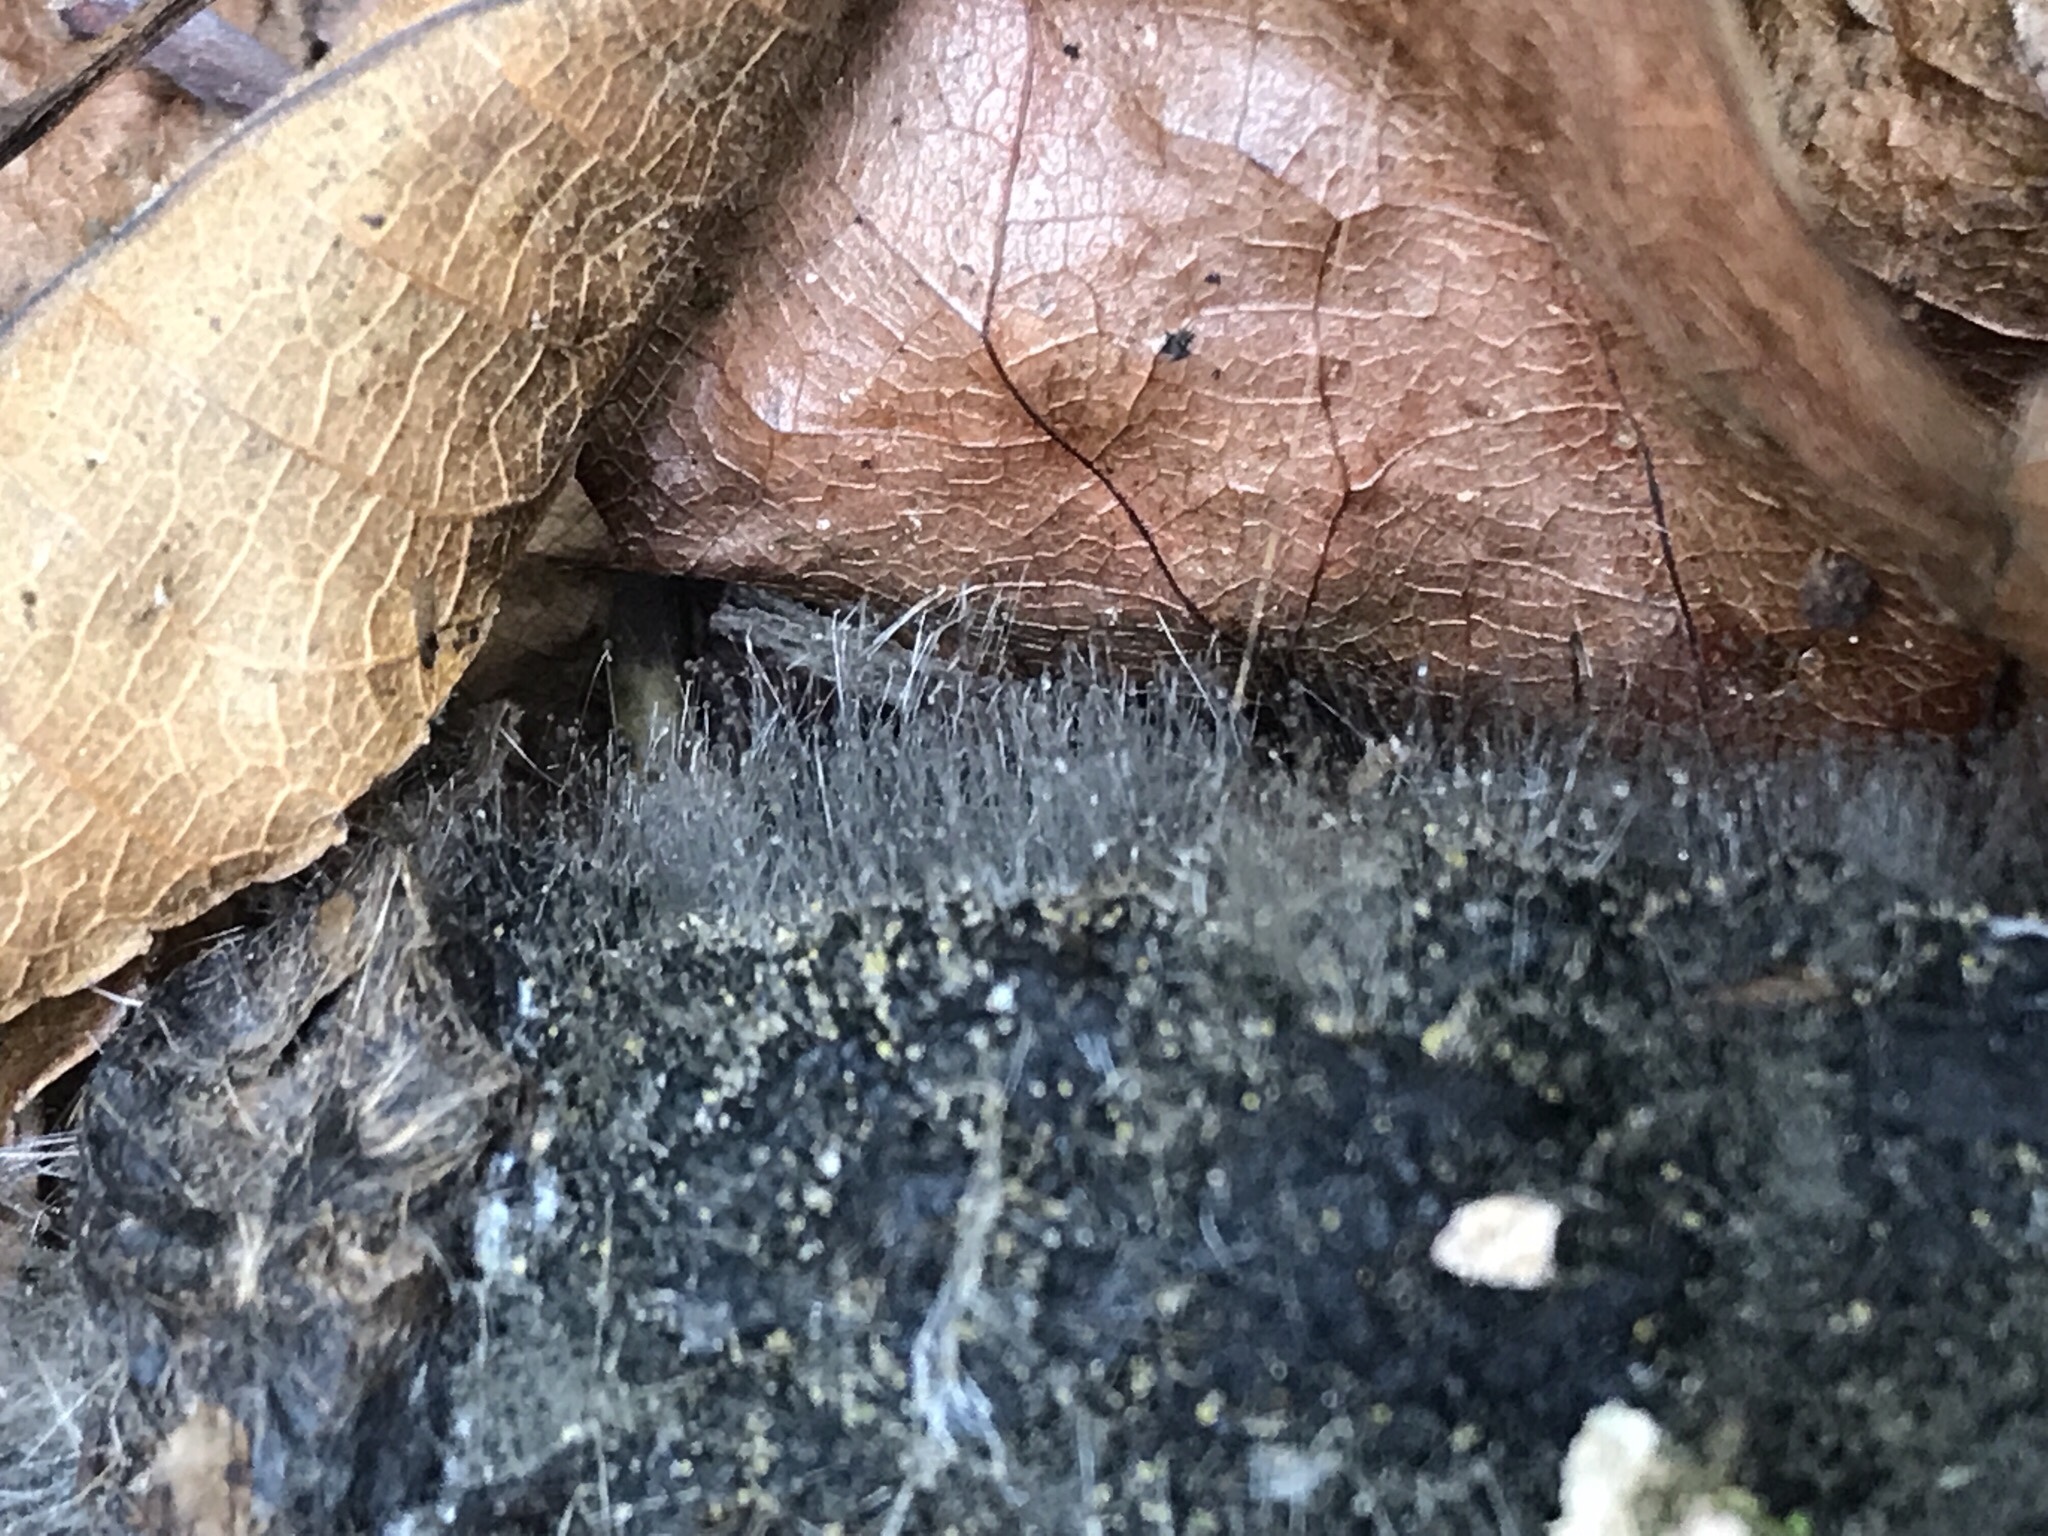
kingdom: Fungi
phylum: Mucoromycota
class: Mucoromycetes
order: Mucorales
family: Phycomycetaceae
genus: Phycomyces
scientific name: Phycomyces
